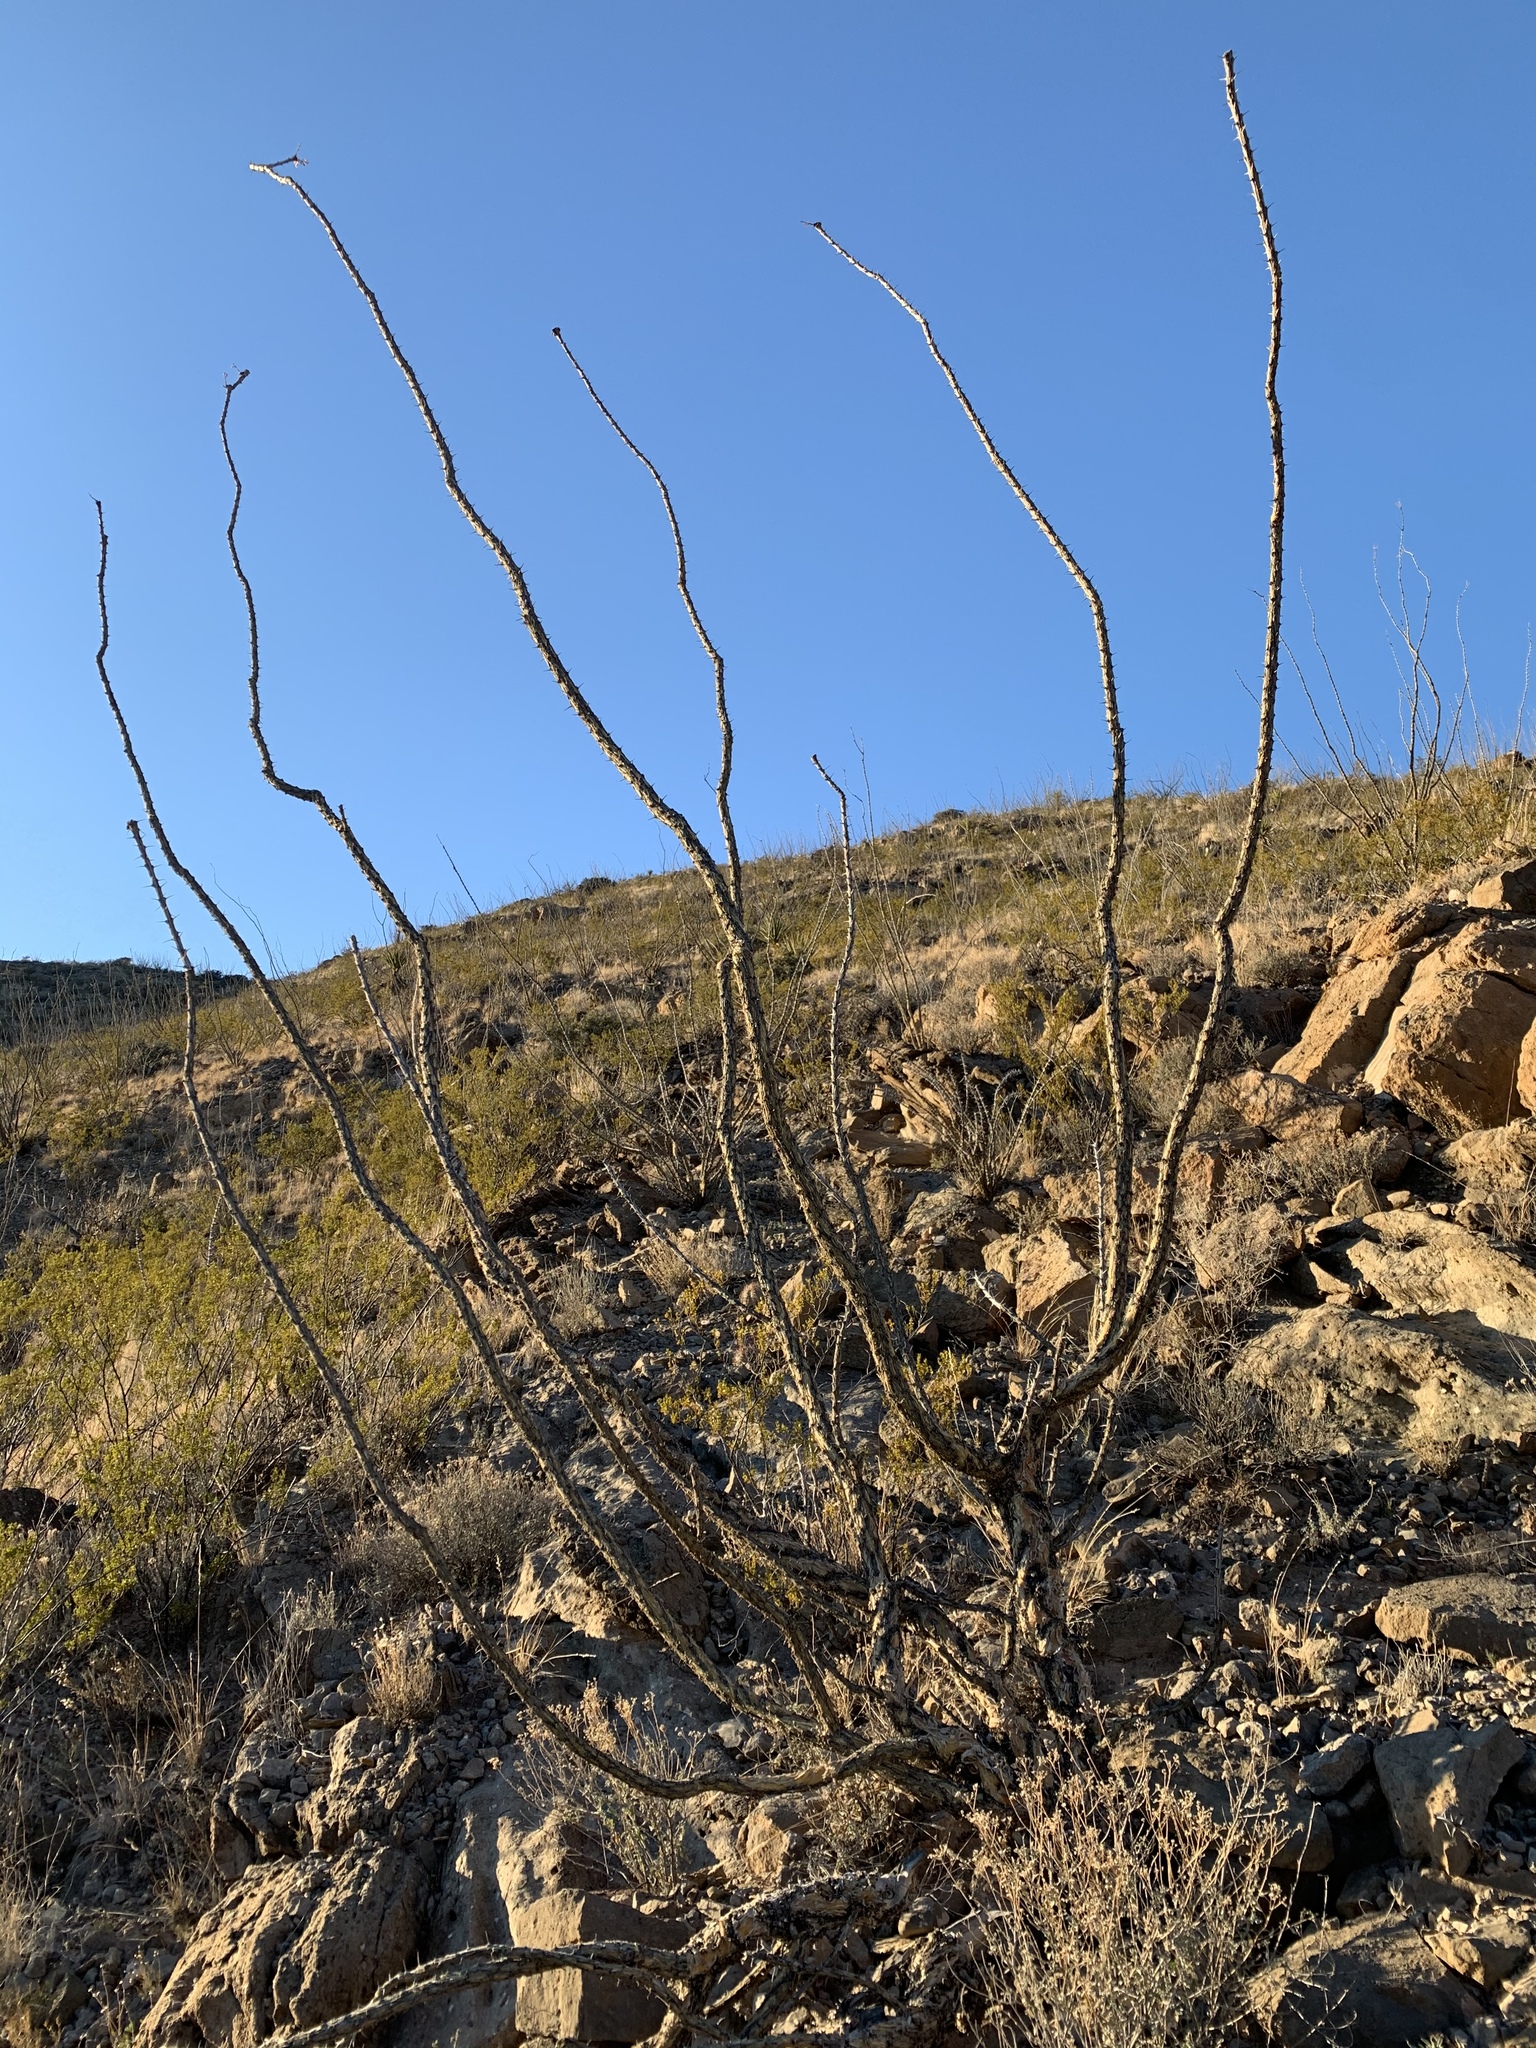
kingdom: Plantae
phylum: Tracheophyta
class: Magnoliopsida
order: Ericales
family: Fouquieriaceae
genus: Fouquieria
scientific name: Fouquieria splendens
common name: Vine-cactus
